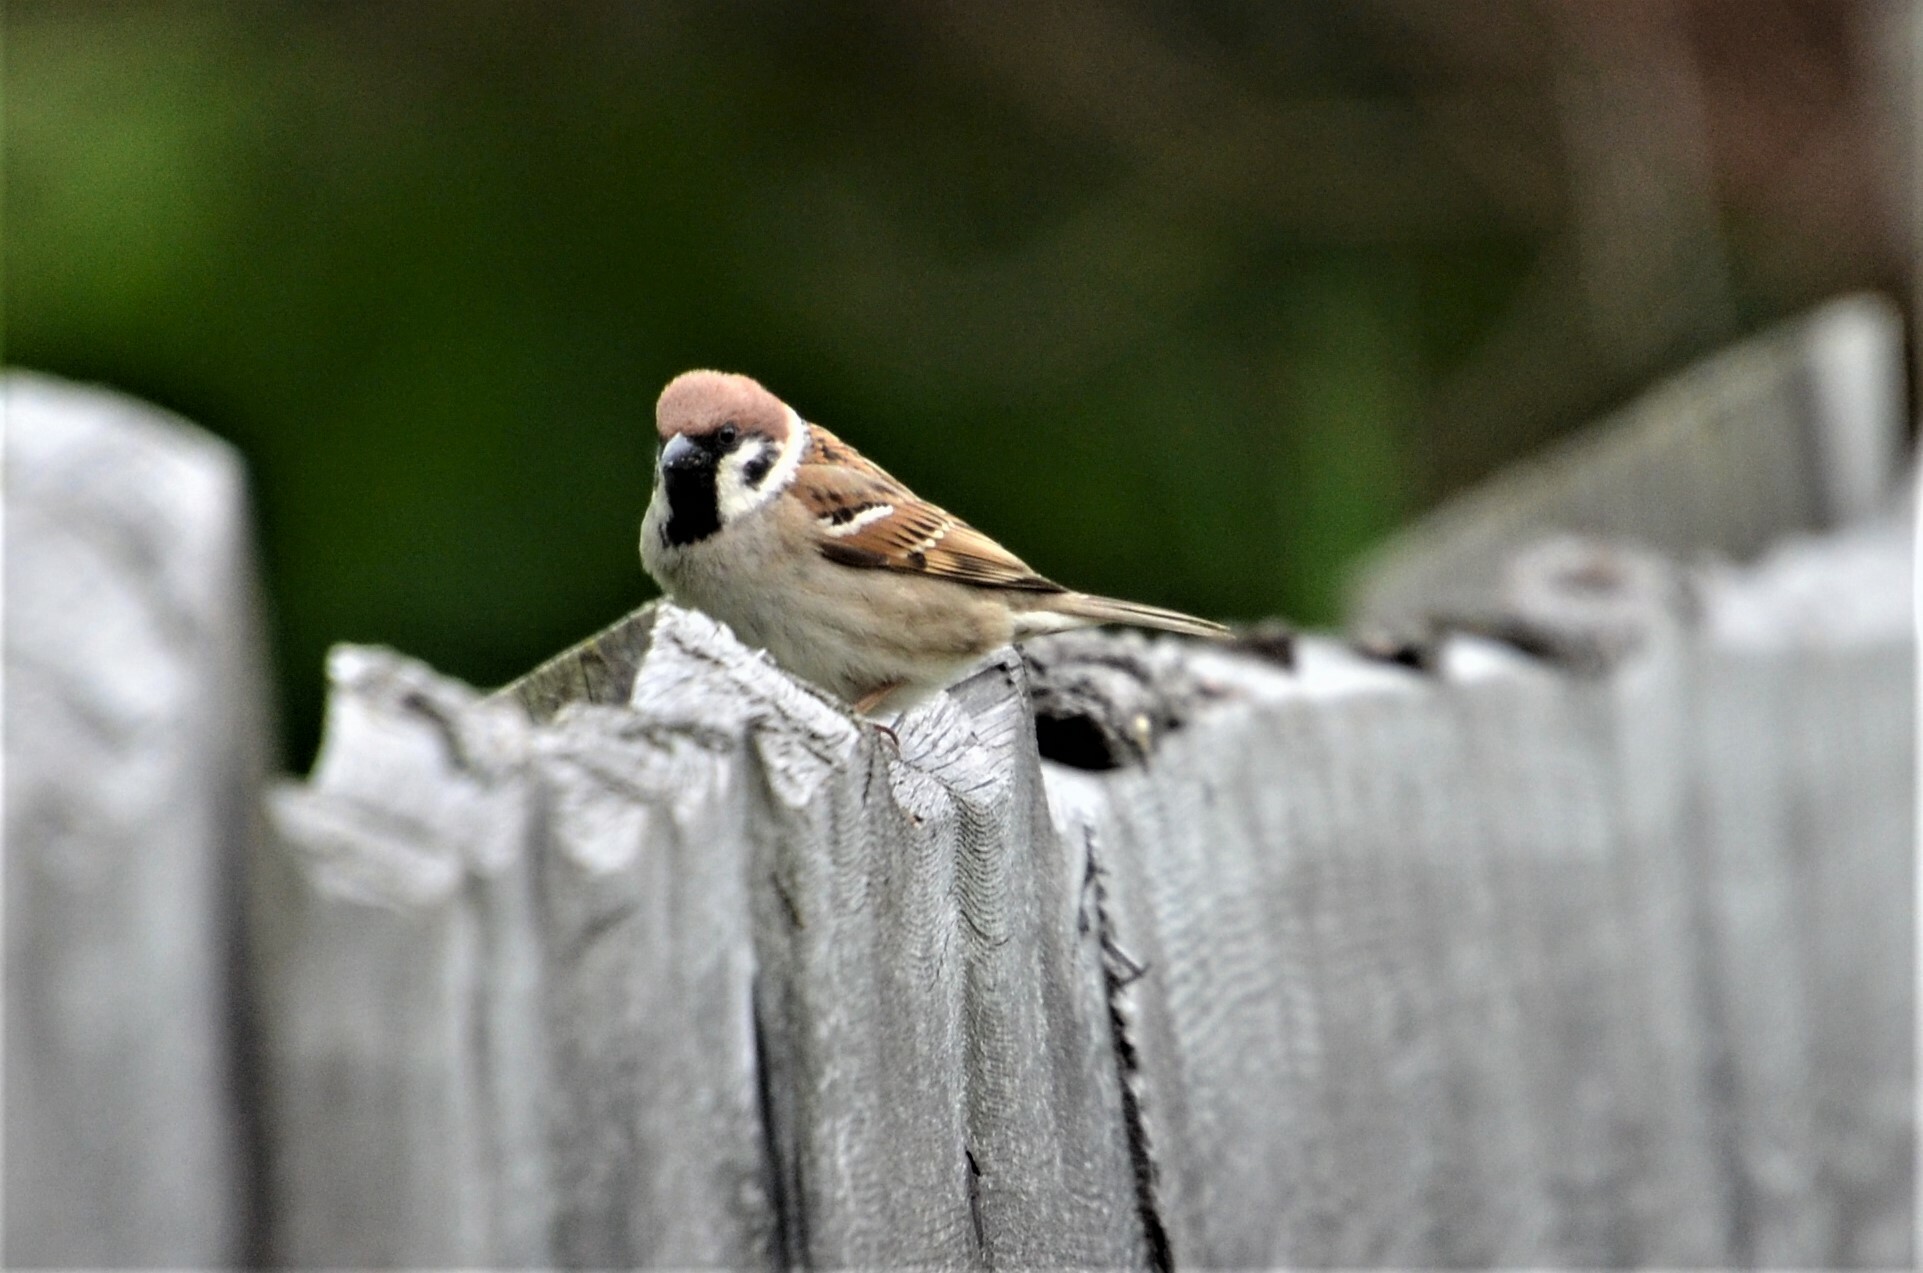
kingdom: Animalia
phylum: Chordata
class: Aves
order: Passeriformes
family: Passeridae
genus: Passer
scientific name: Passer montanus
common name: Eurasian tree sparrow
